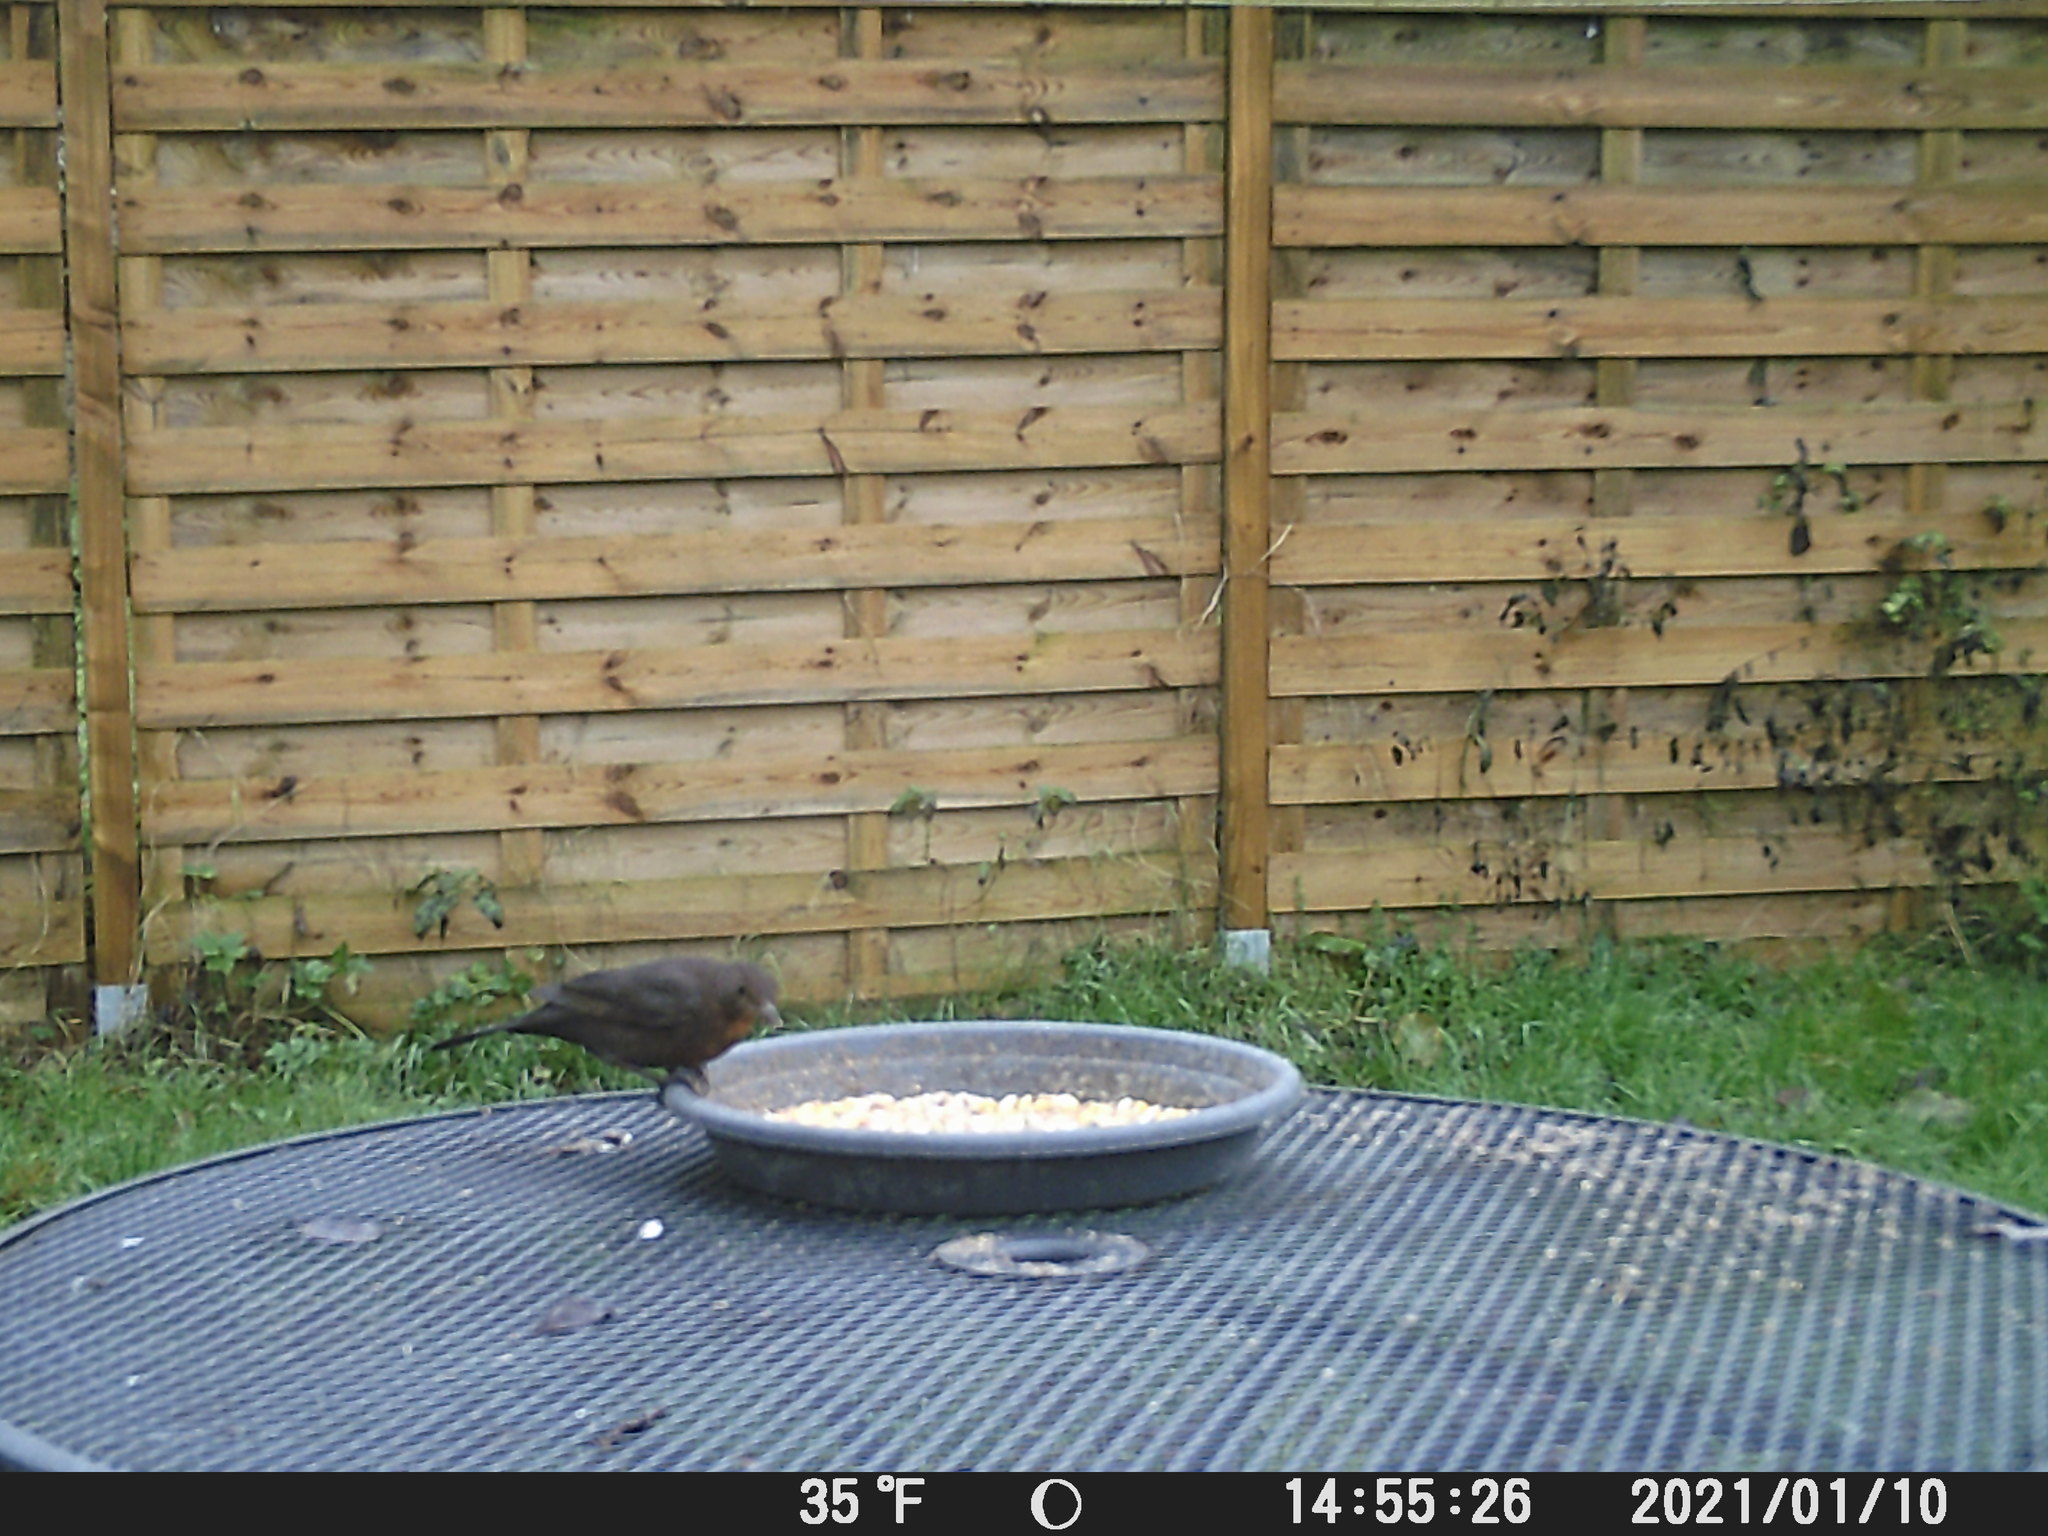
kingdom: Animalia
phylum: Chordata
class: Aves
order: Passeriformes
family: Turdidae
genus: Turdus
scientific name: Turdus merula
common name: Common blackbird
